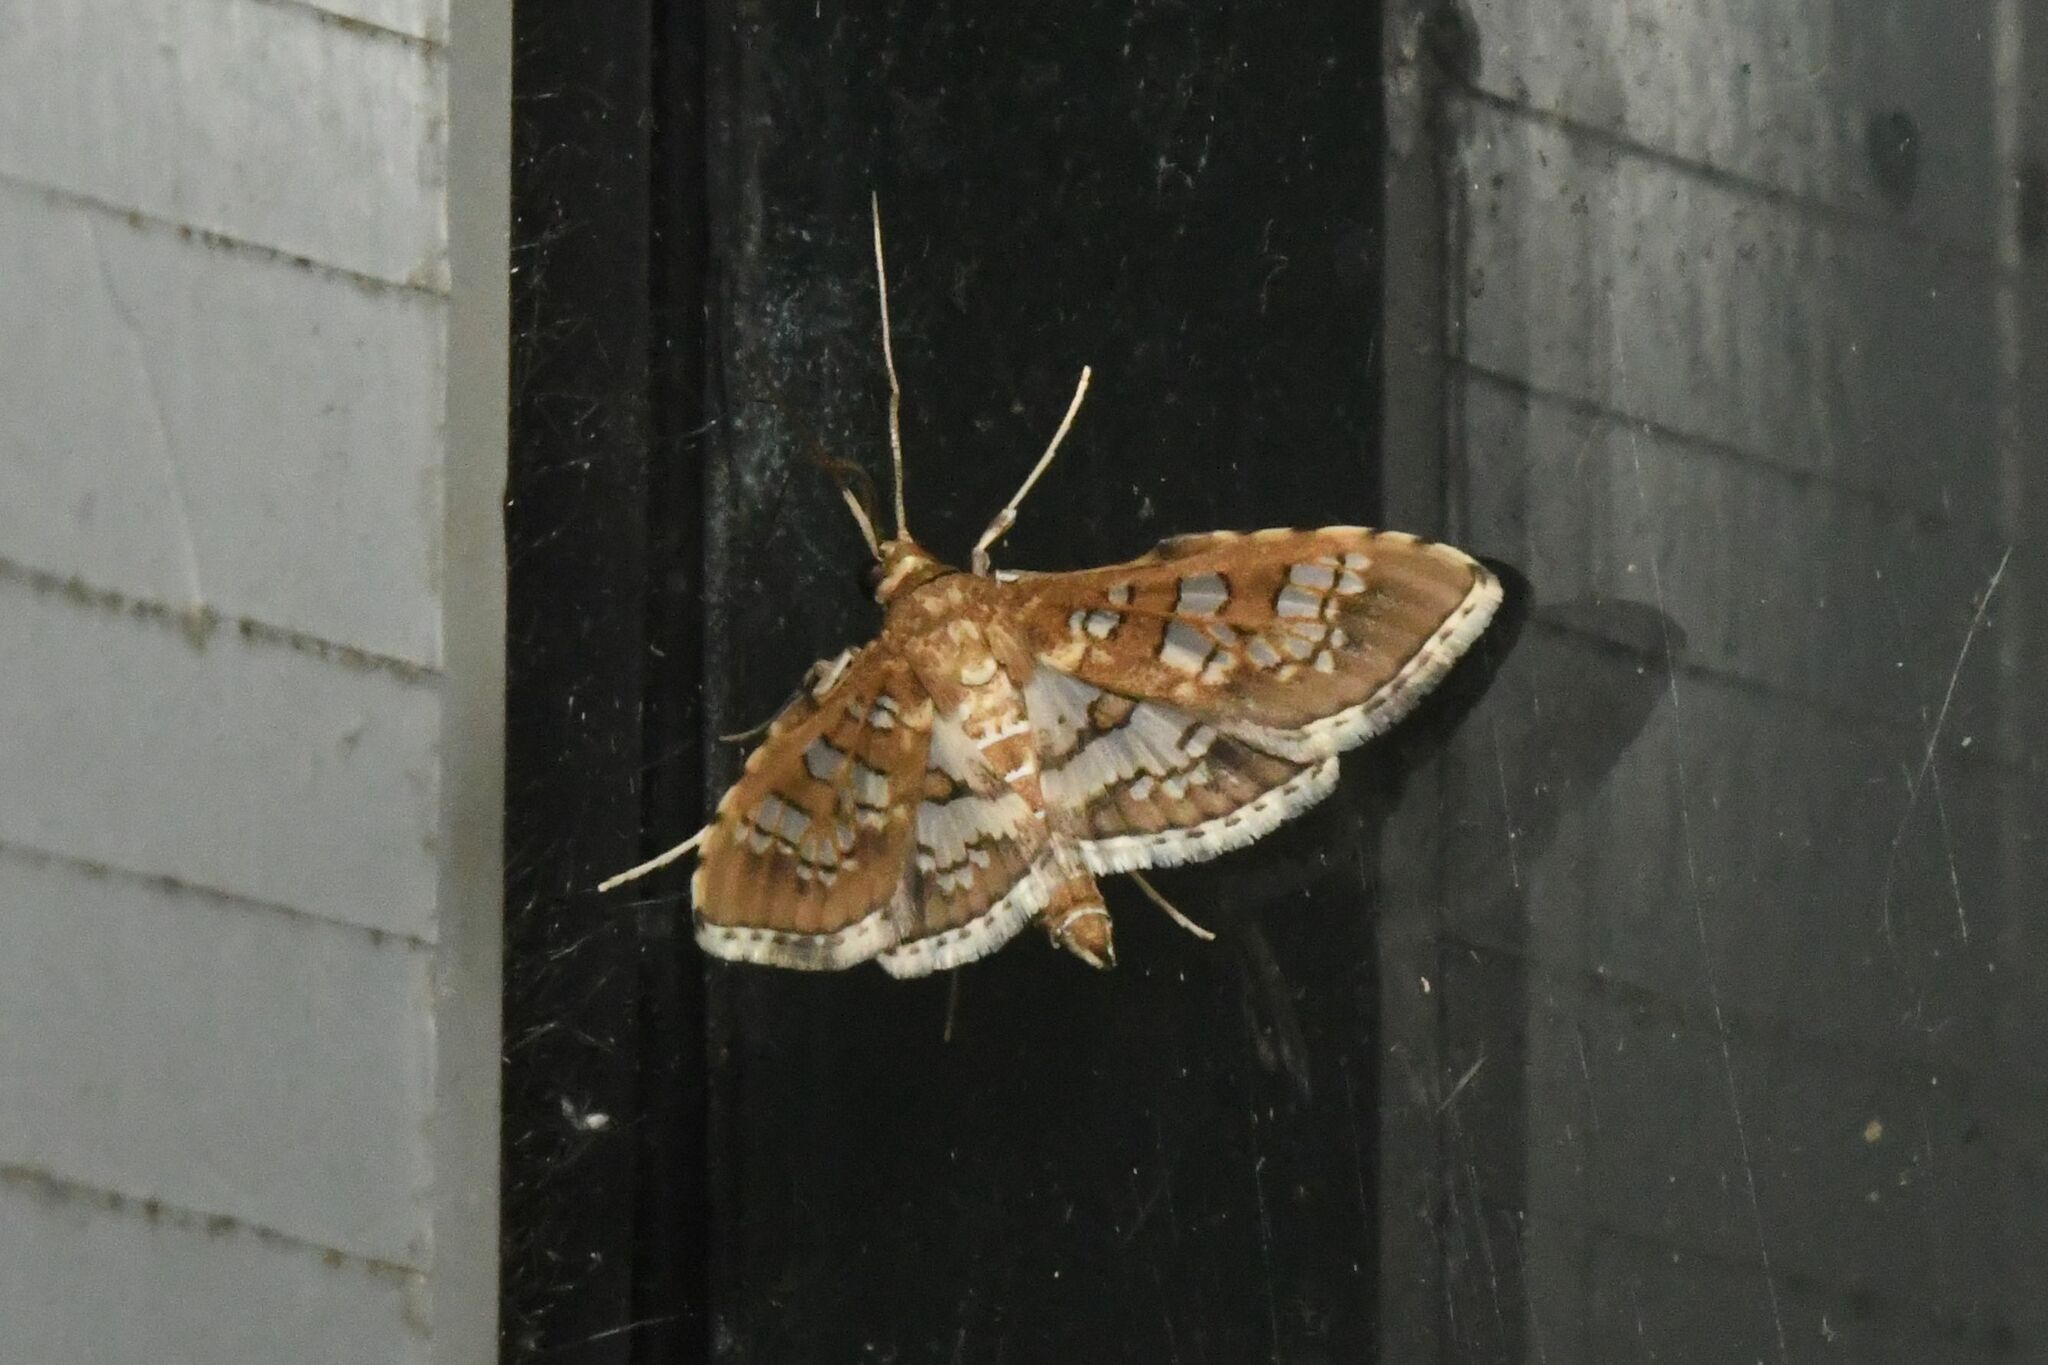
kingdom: Animalia
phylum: Arthropoda
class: Insecta
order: Lepidoptera
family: Crambidae
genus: Sameodes
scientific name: Sameodes cancellalis
